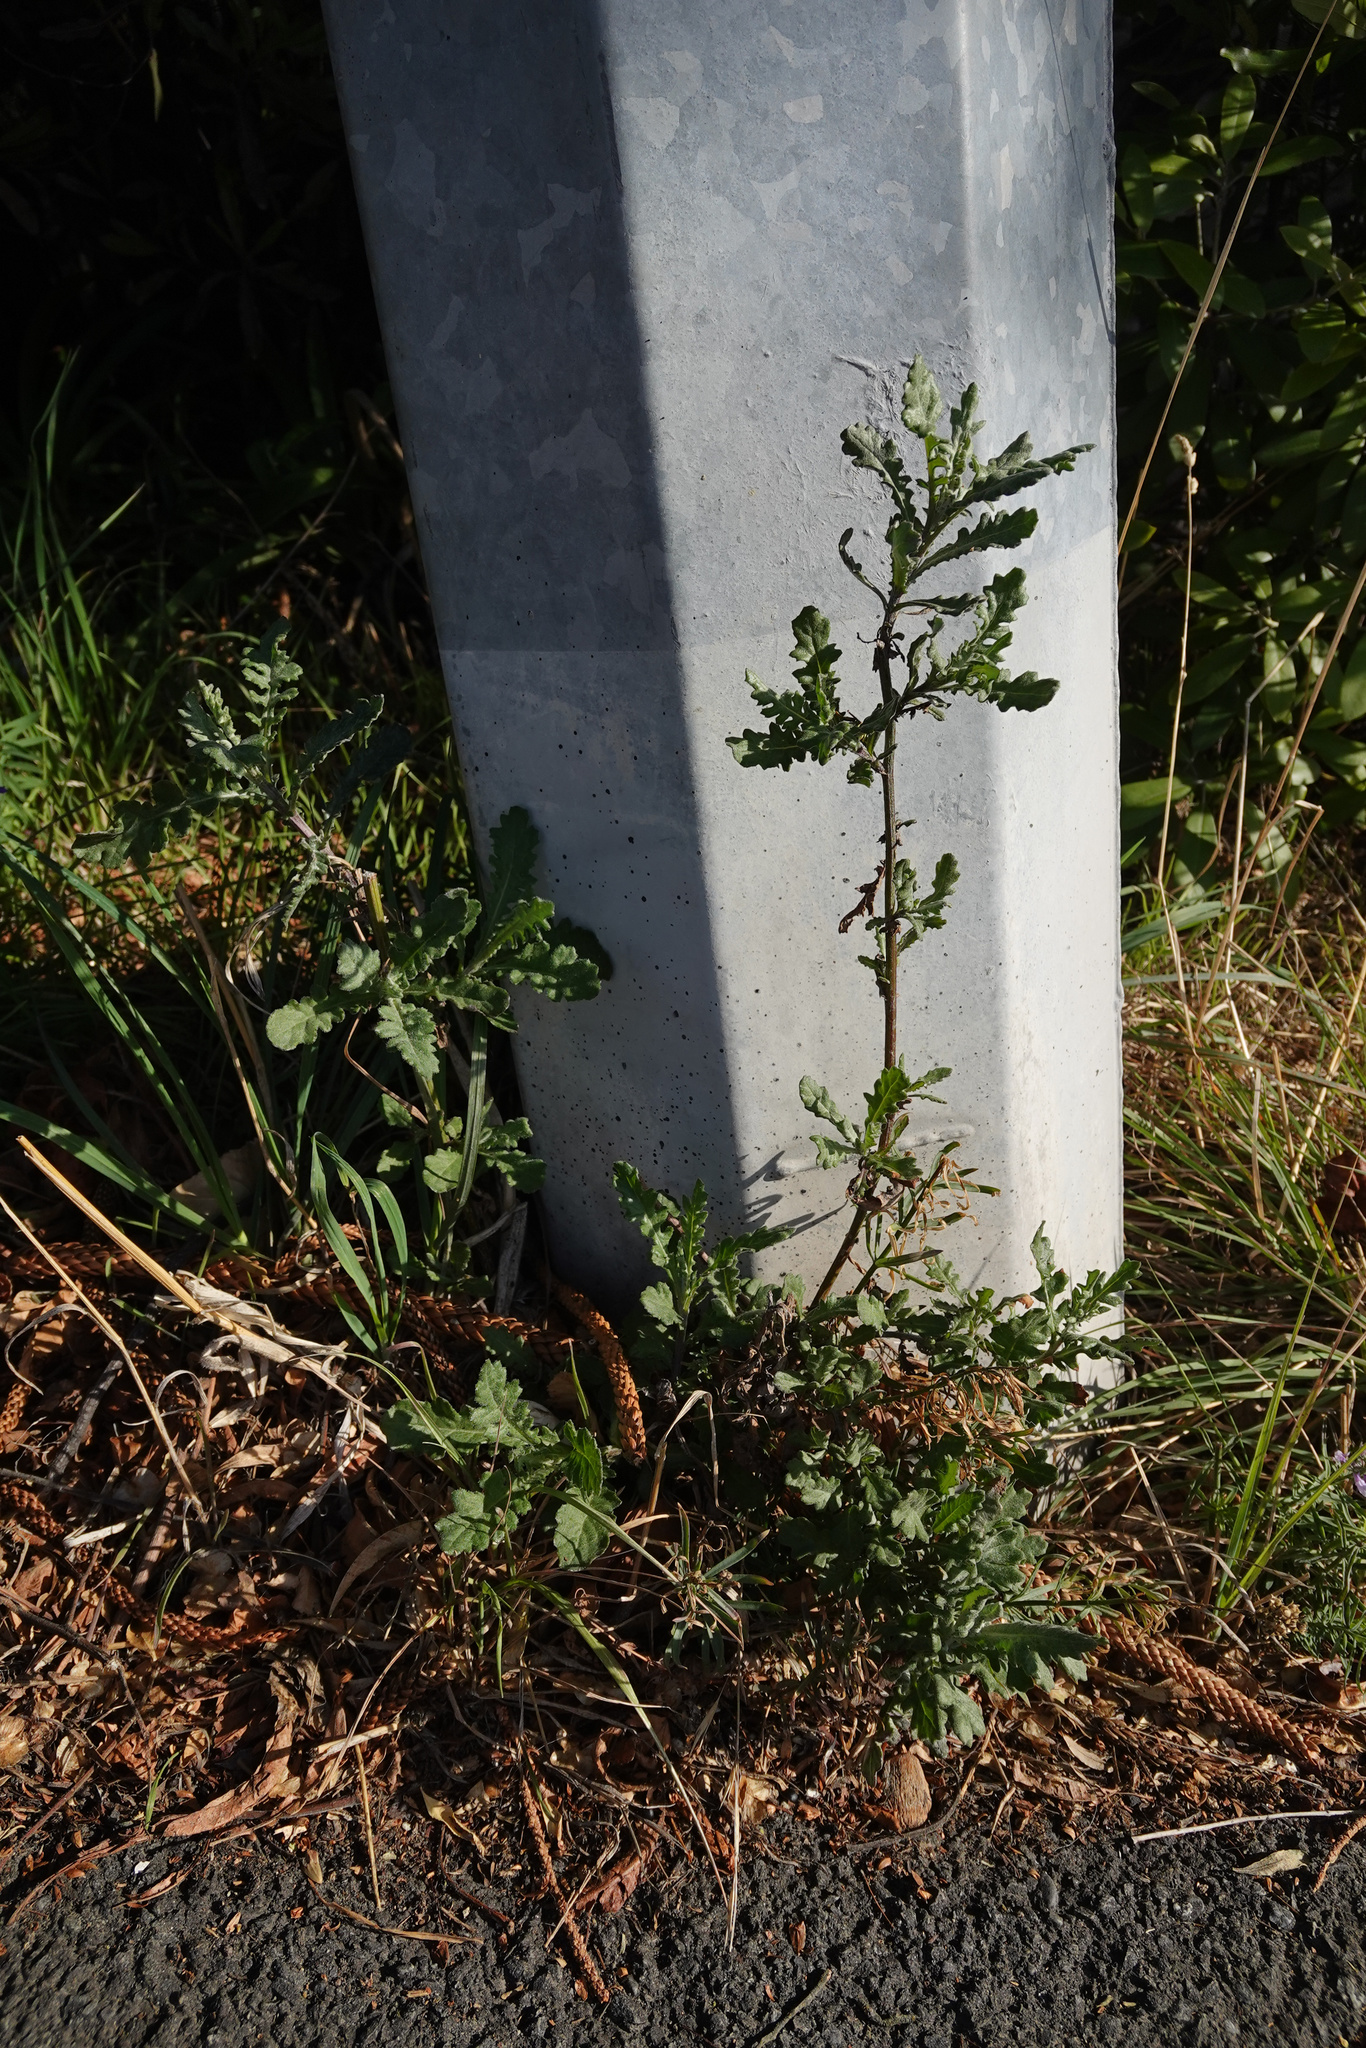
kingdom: Plantae
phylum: Tracheophyta
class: Magnoliopsida
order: Asterales
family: Asteraceae
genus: Senecio
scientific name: Senecio glomeratus
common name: Cutleaf burnweed
